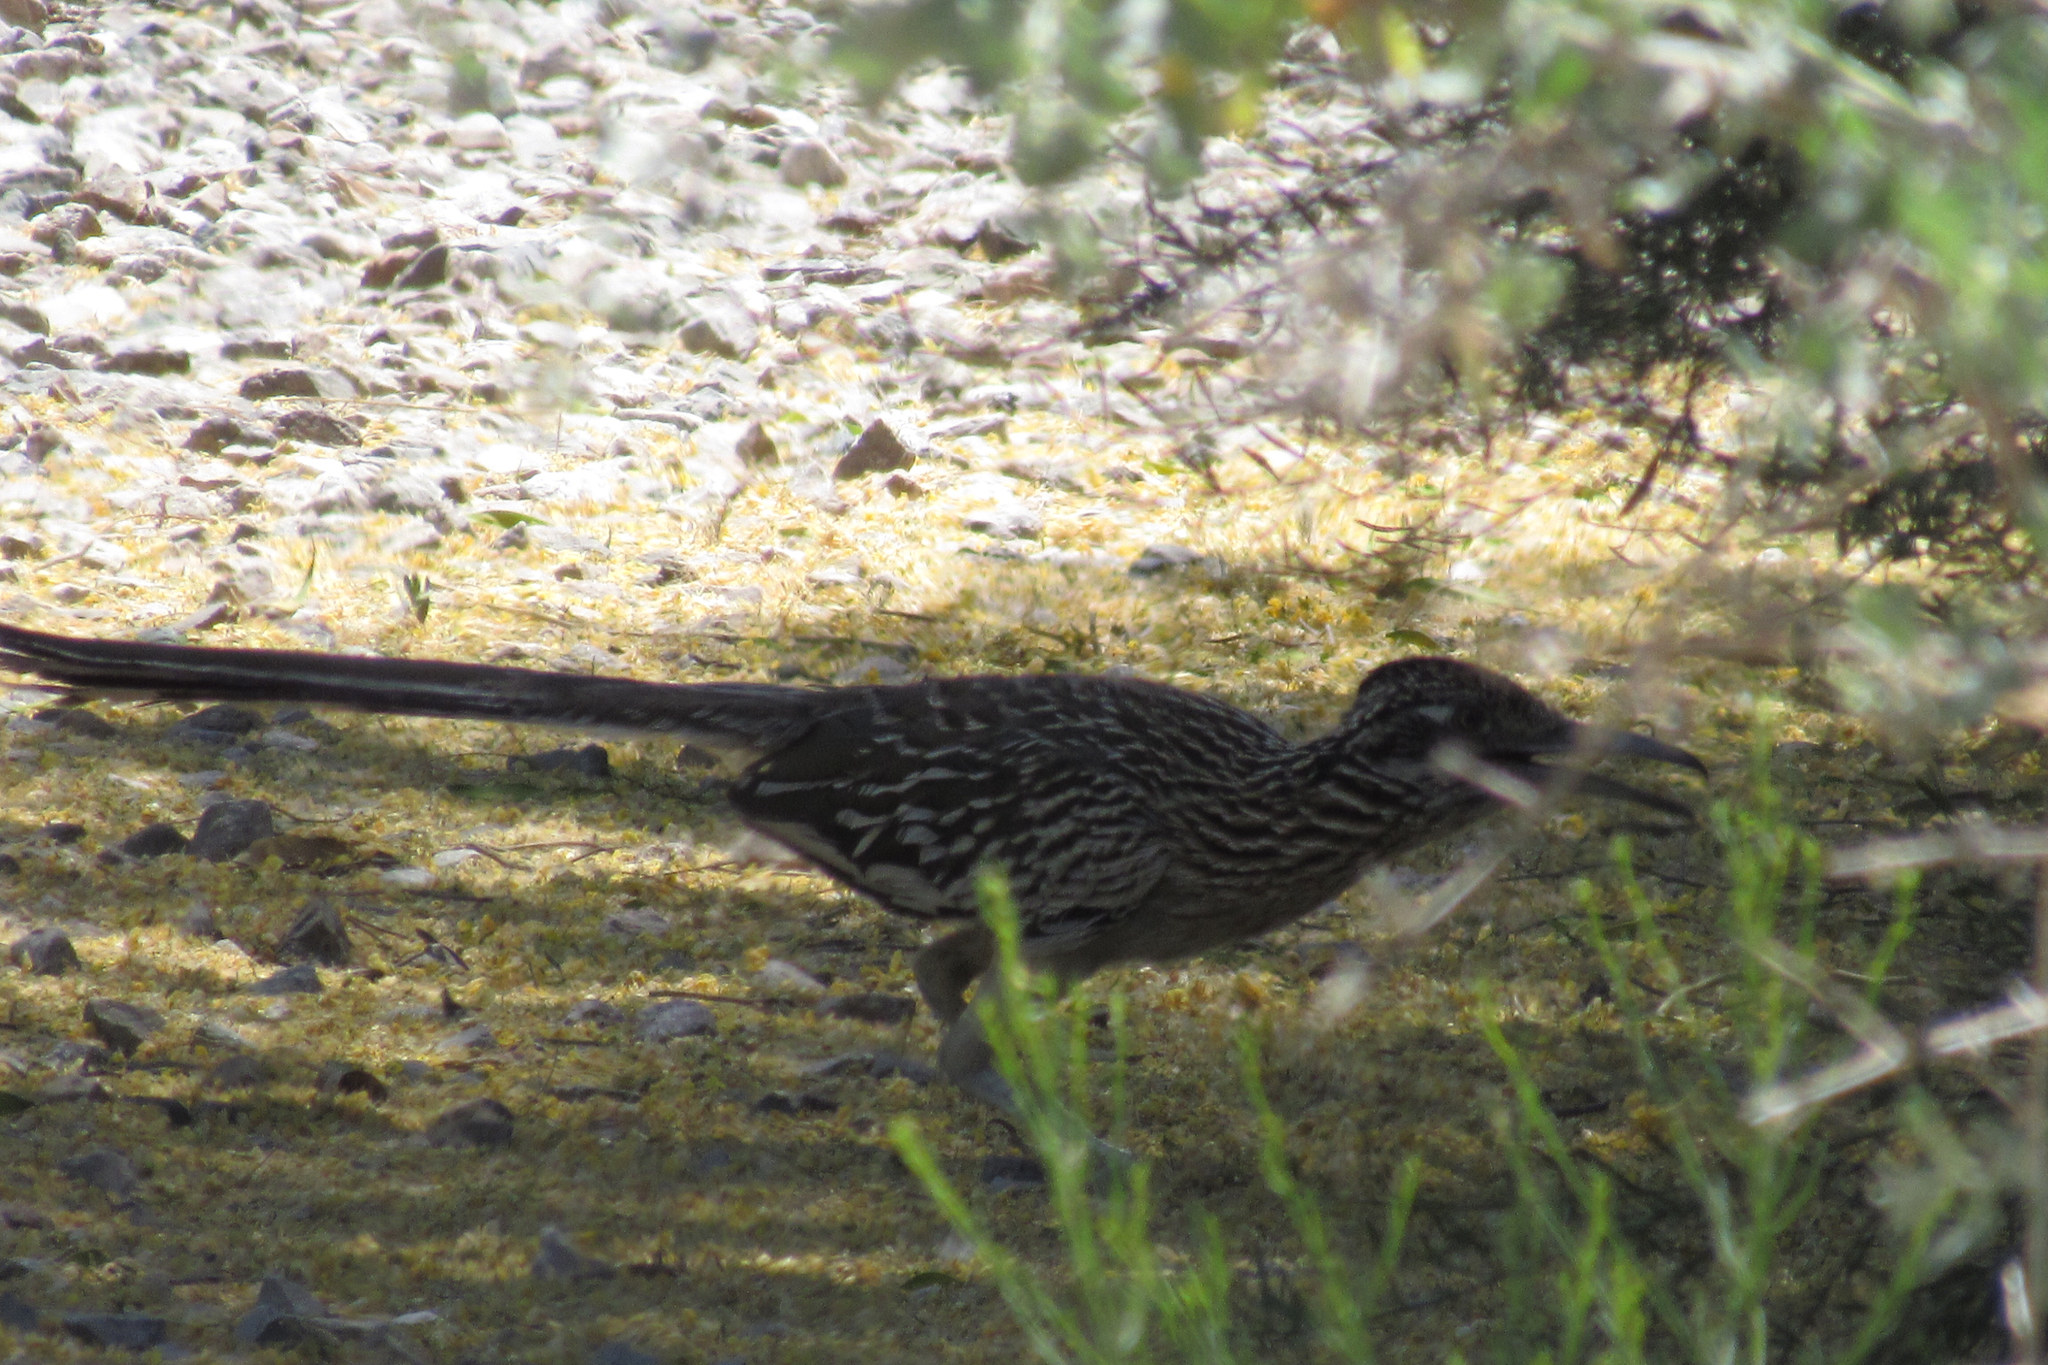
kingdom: Animalia
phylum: Chordata
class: Aves
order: Cuculiformes
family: Cuculidae
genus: Geococcyx
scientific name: Geococcyx californianus
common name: Greater roadrunner
